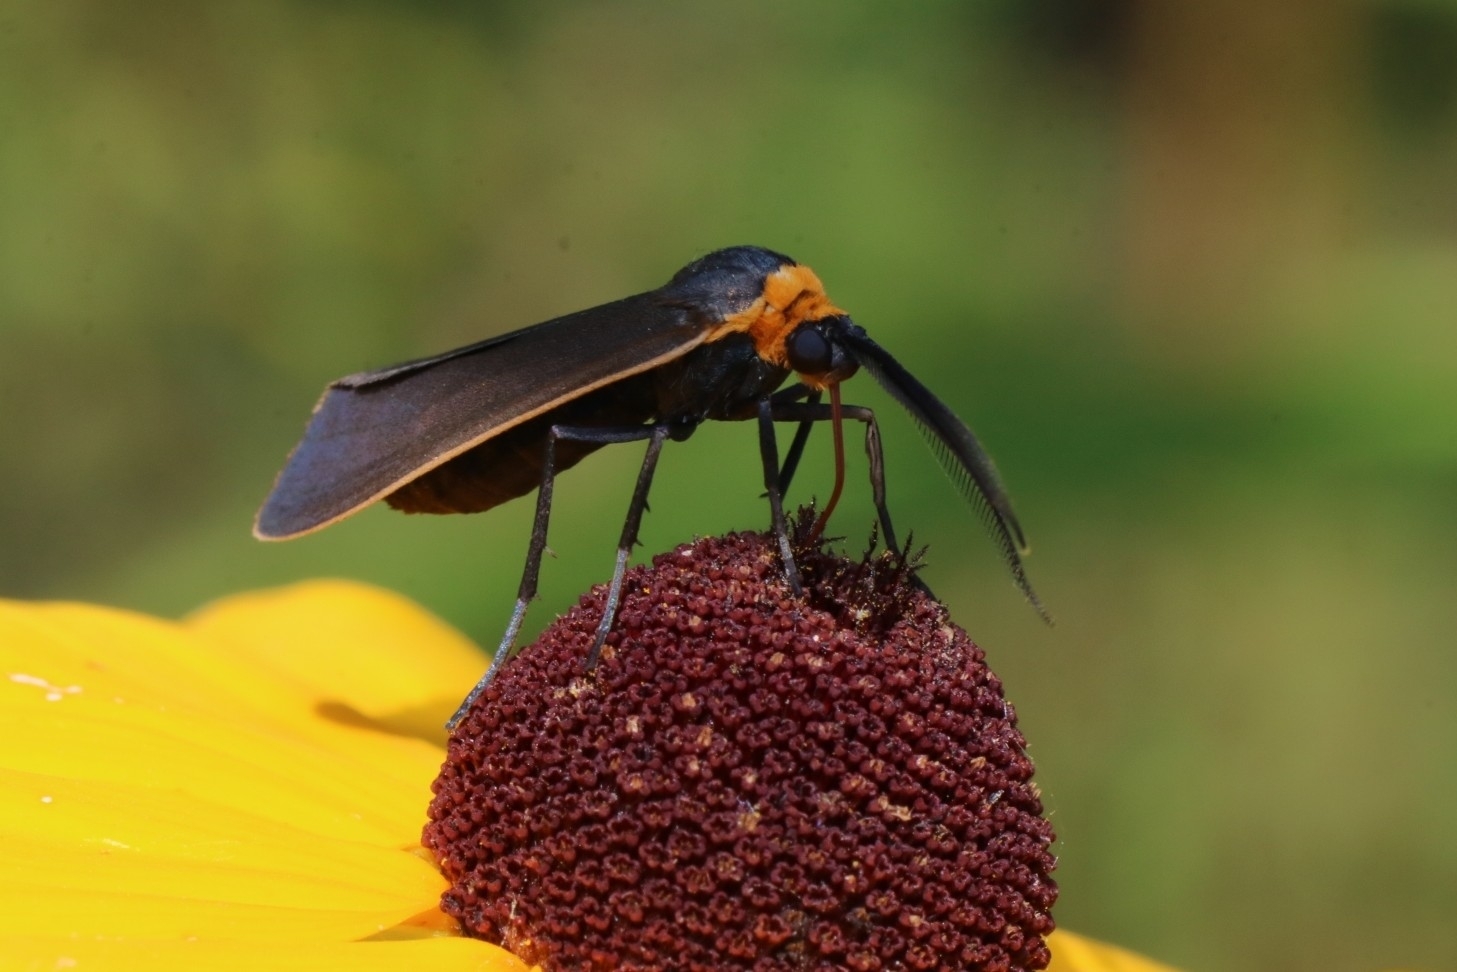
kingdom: Animalia
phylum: Arthropoda
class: Insecta
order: Lepidoptera
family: Erebidae
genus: Cisseps
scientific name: Cisseps fulvicollis
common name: Yellow-collared scape moth
